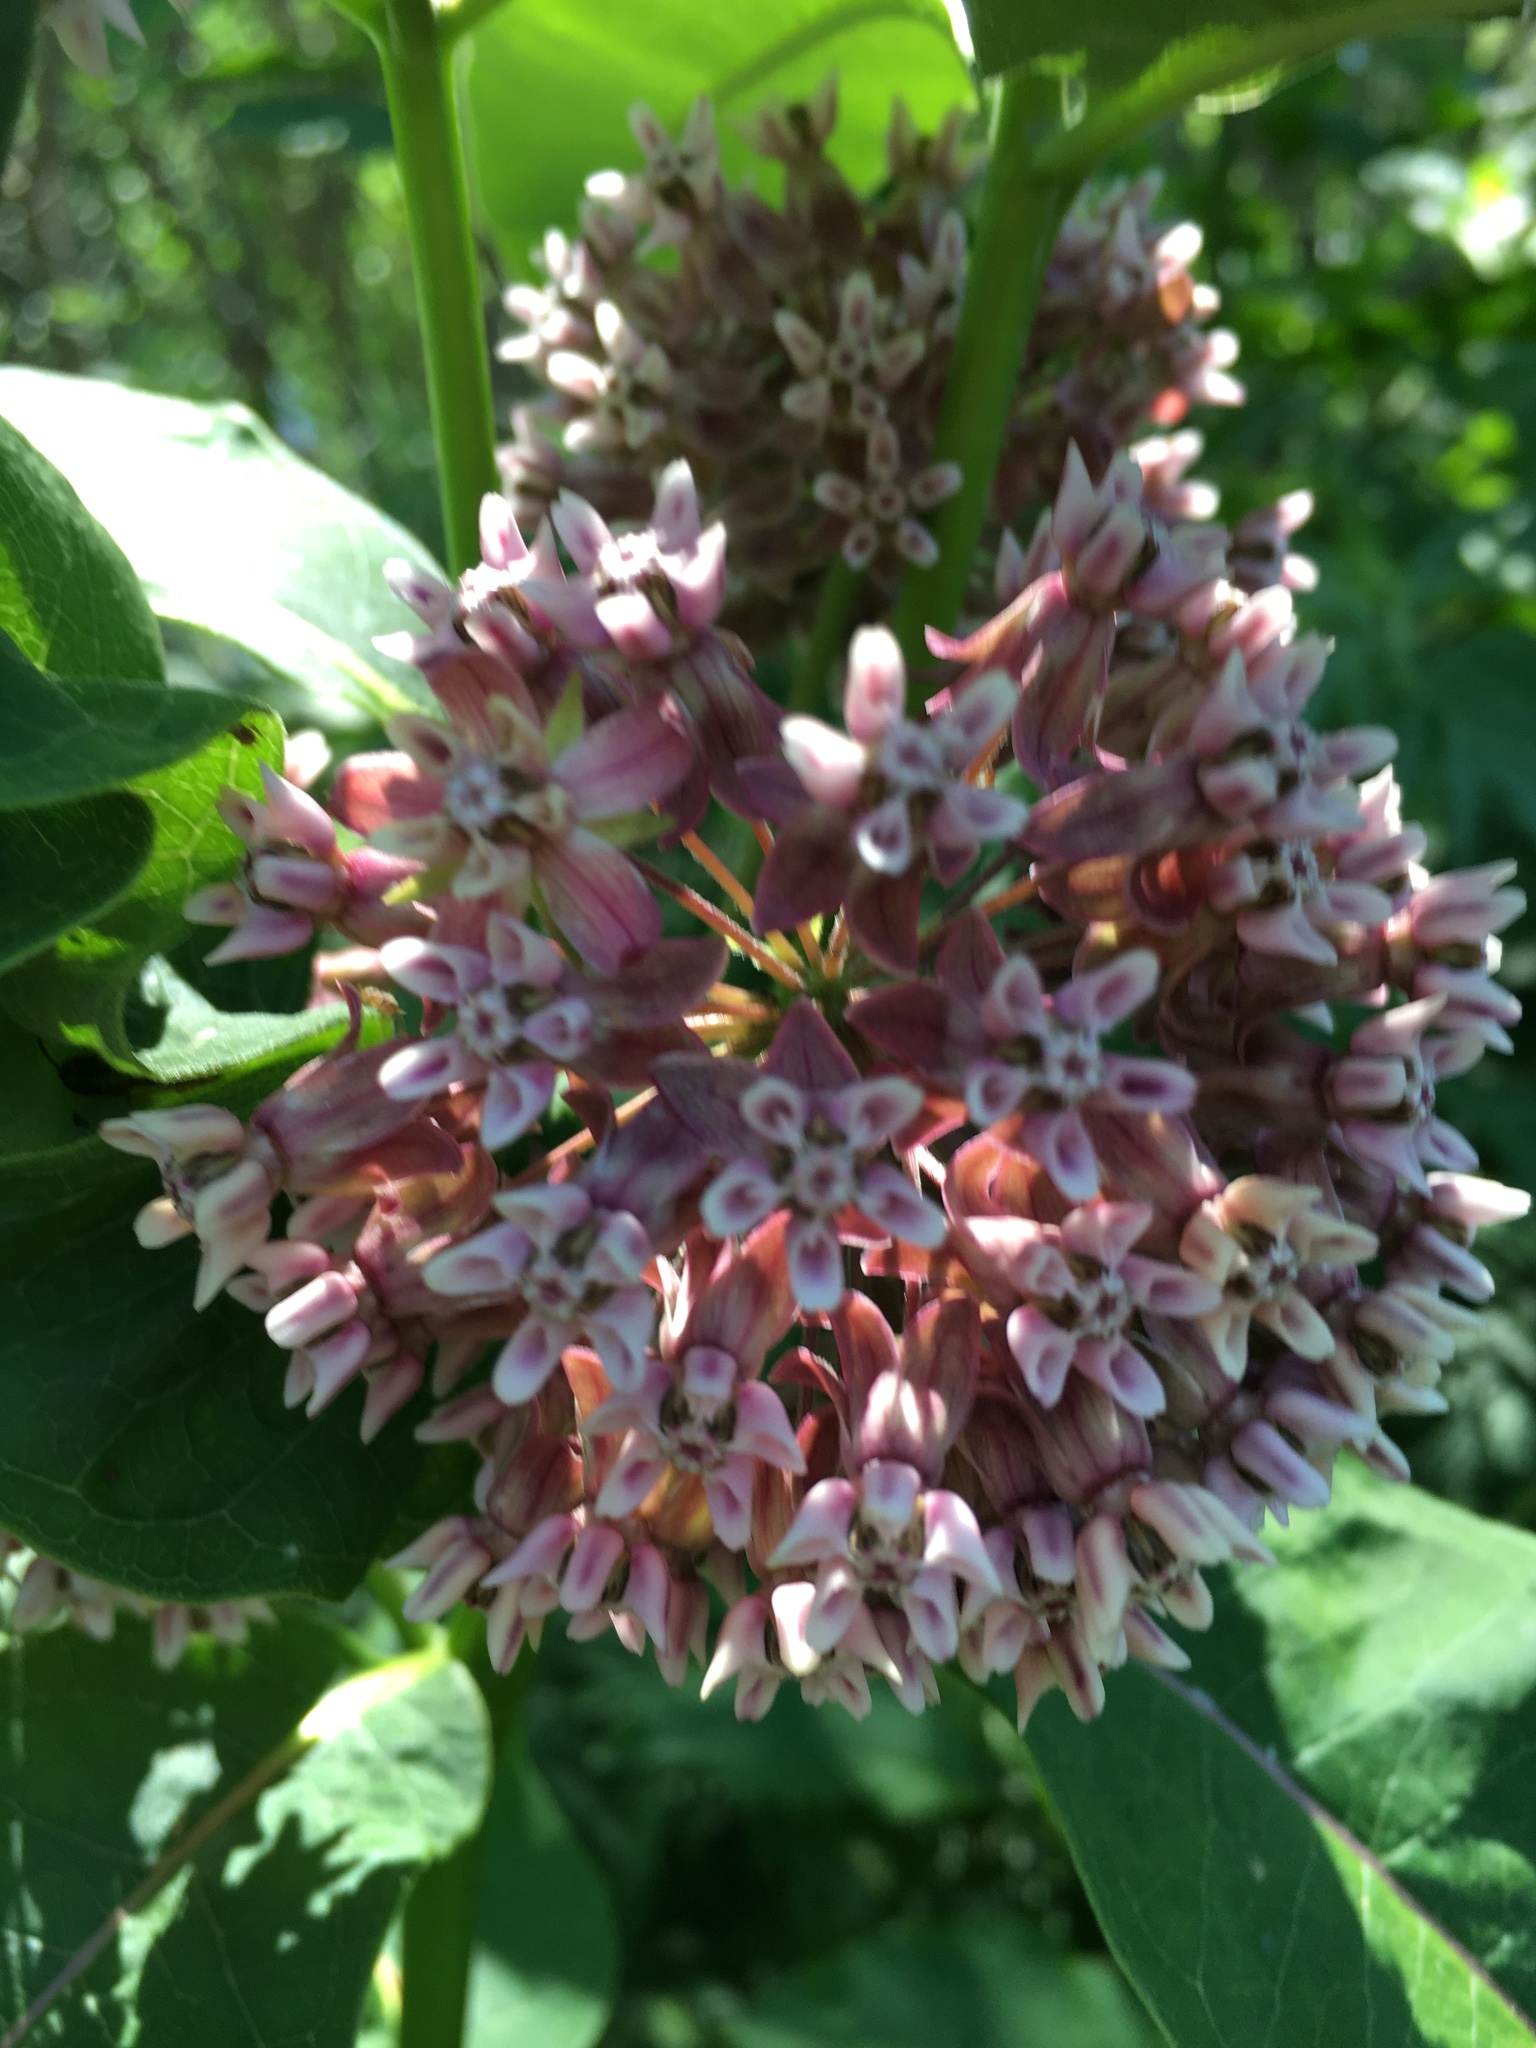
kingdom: Plantae
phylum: Tracheophyta
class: Magnoliopsida
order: Gentianales
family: Apocynaceae
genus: Asclepias
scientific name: Asclepias syriaca
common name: Common milkweed
